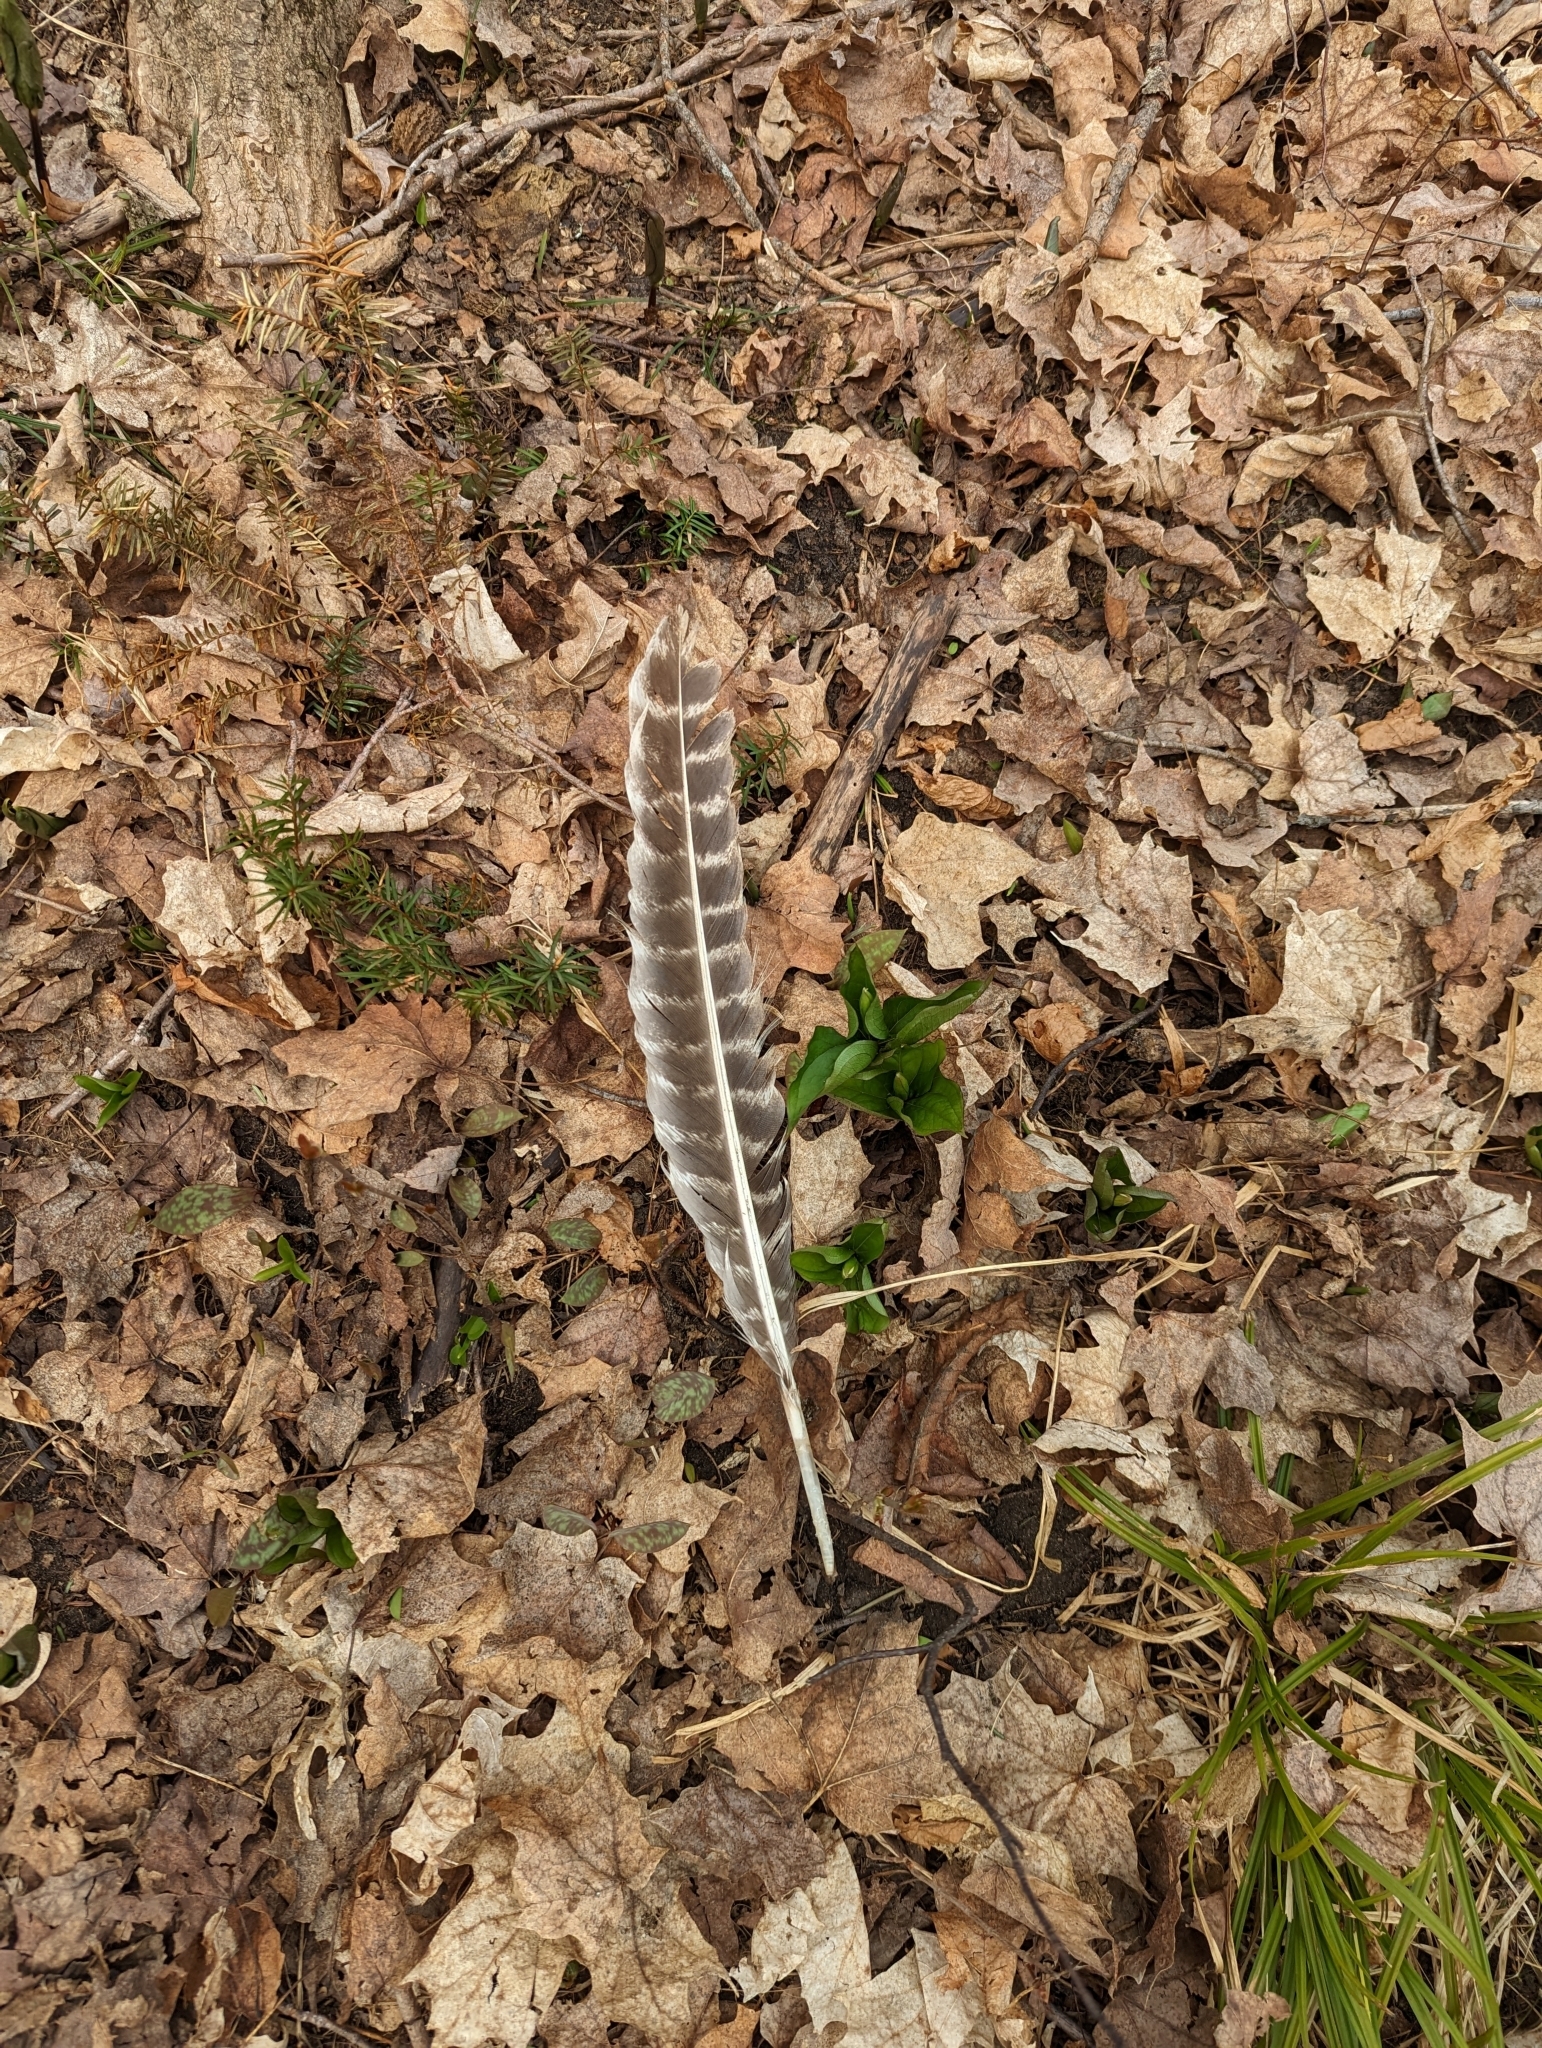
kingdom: Animalia
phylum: Chordata
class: Aves
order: Galliformes
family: Phasianidae
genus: Meleagris
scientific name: Meleagris gallopavo
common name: Wild turkey
